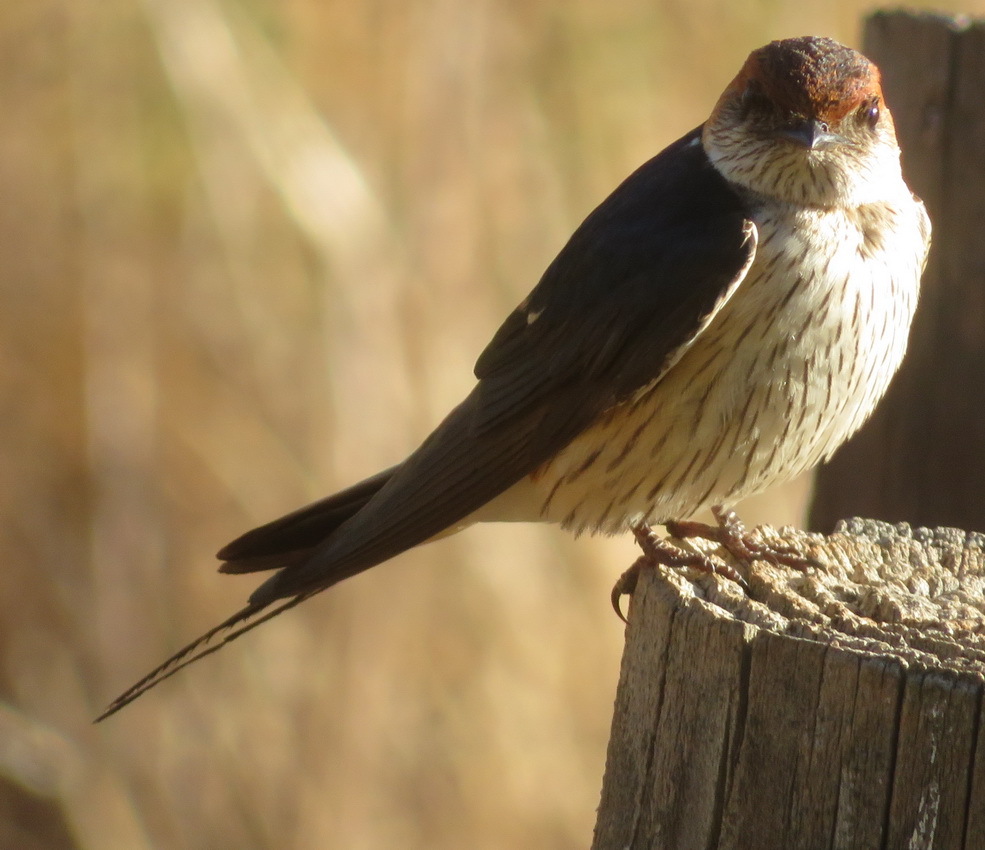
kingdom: Animalia
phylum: Chordata
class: Aves
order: Passeriformes
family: Hirundinidae
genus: Cecropis
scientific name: Cecropis cucullata
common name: Greater striped-swallow
